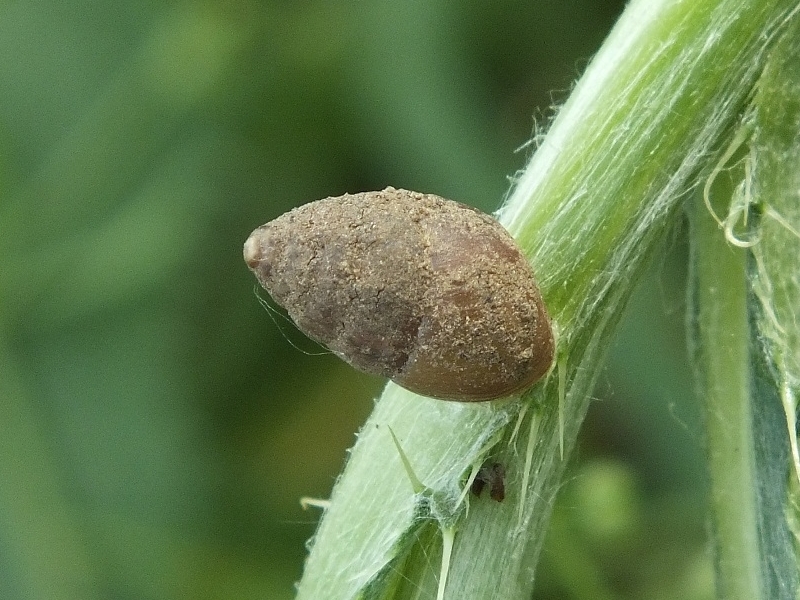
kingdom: Animalia
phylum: Mollusca
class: Gastropoda
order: Stylommatophora
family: Enidae
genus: Chondrula
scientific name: Chondrula tridens
